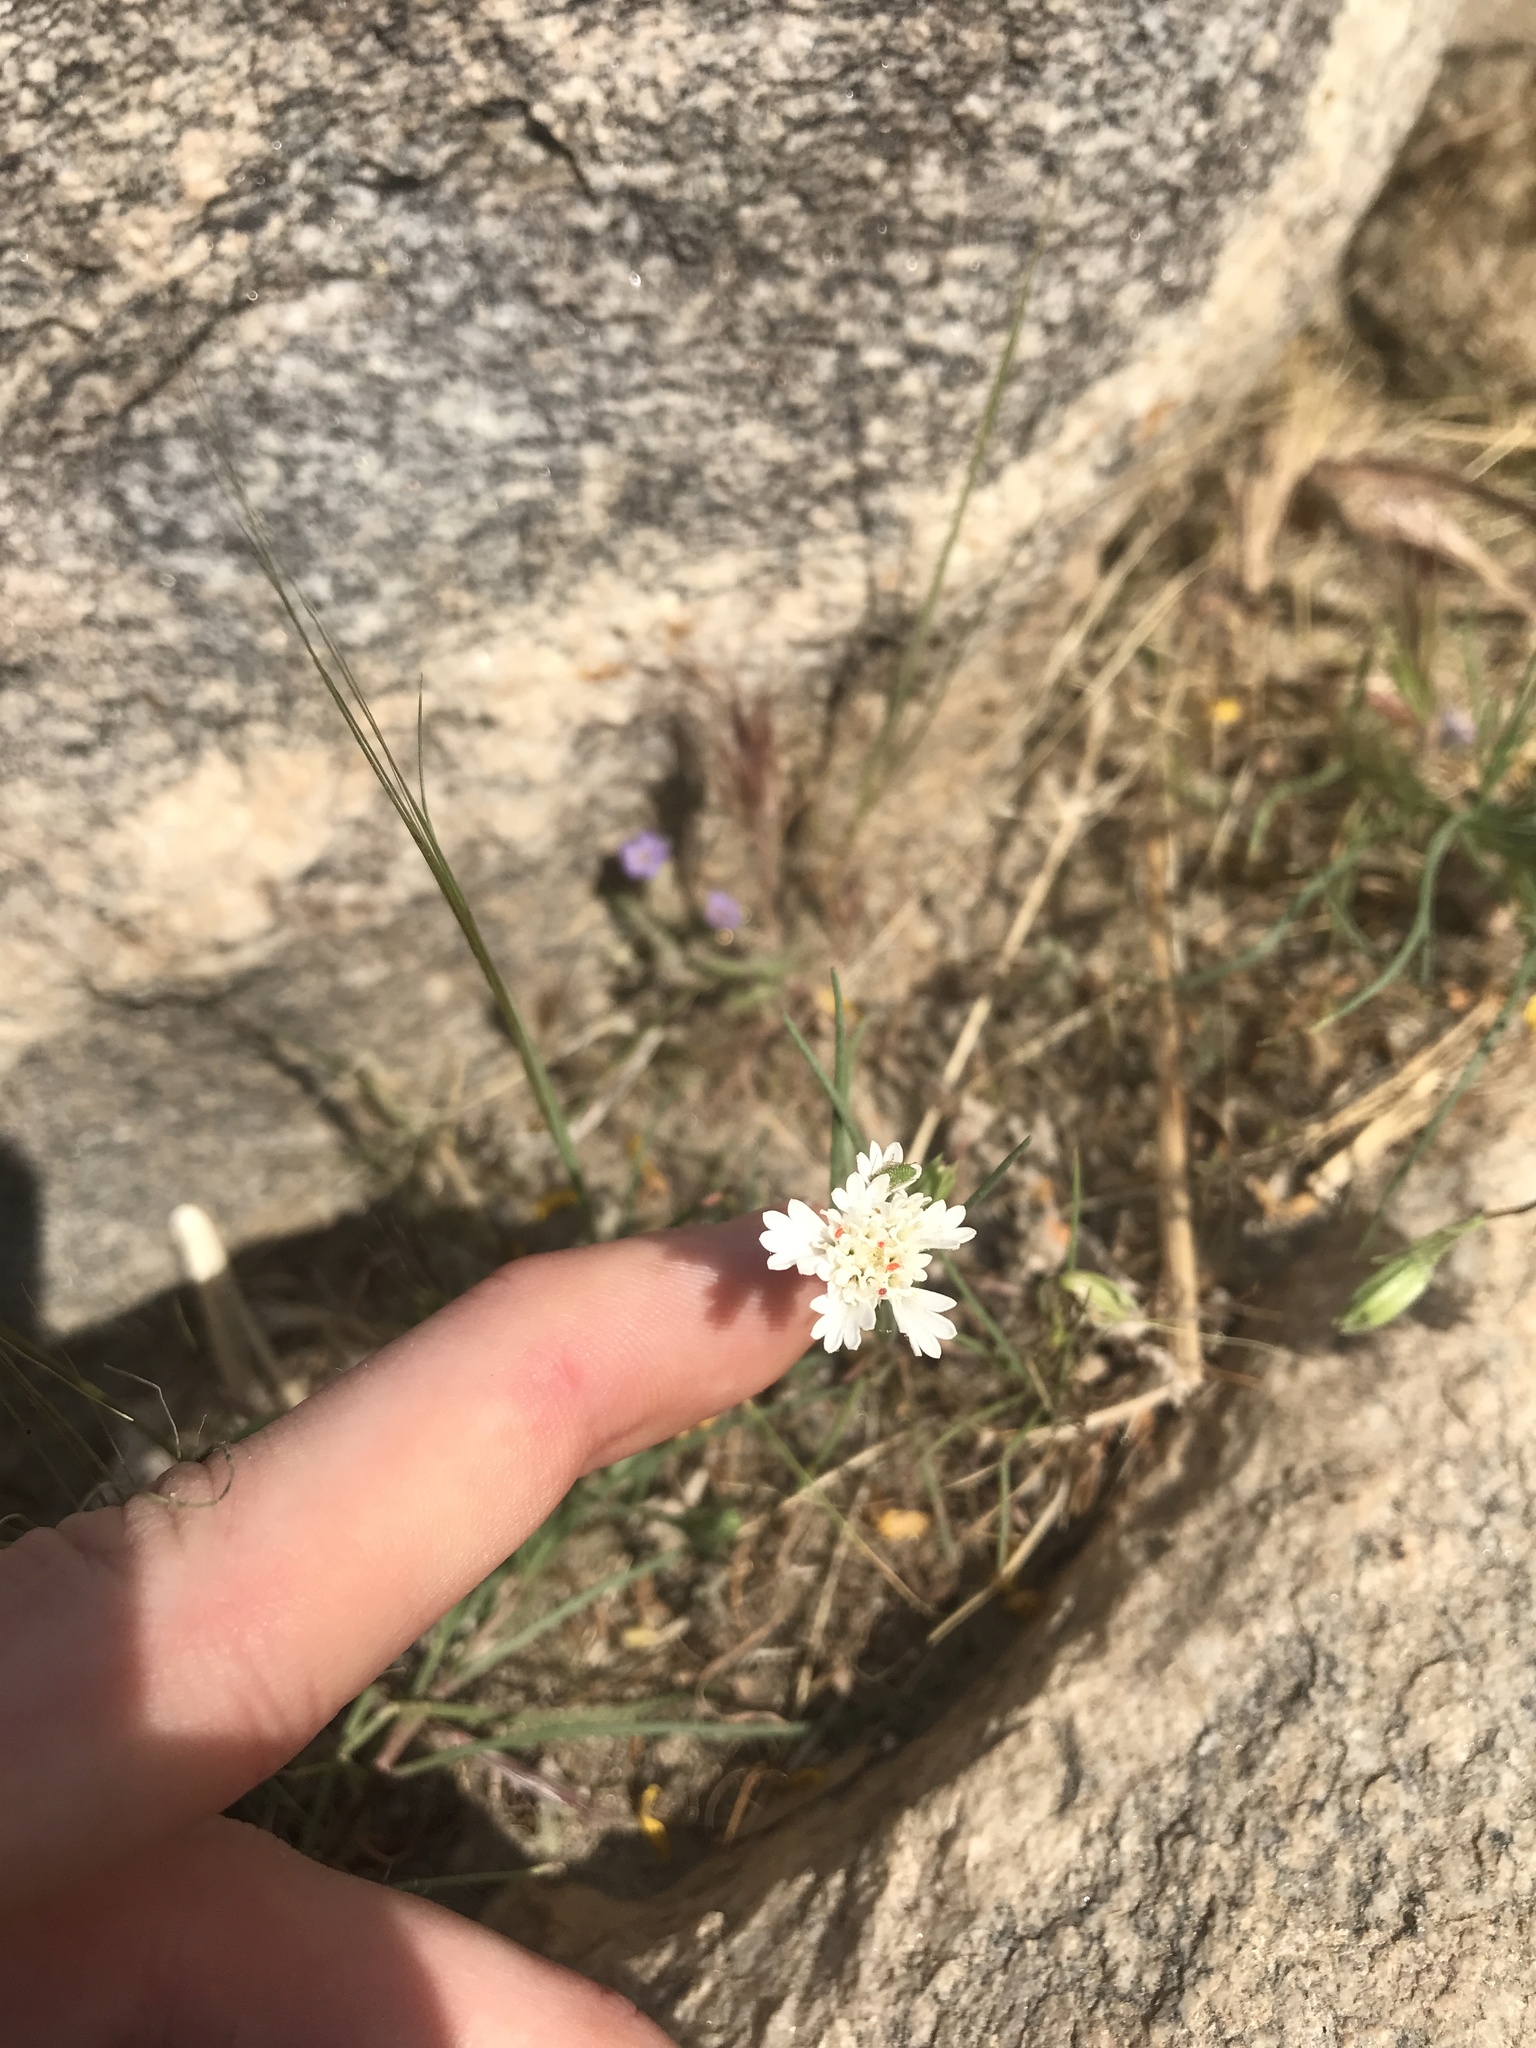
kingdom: Plantae
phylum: Tracheophyta
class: Magnoliopsida
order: Asterales
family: Asteraceae
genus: Chaenactis
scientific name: Chaenactis fremontii
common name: Fremont pincushion
